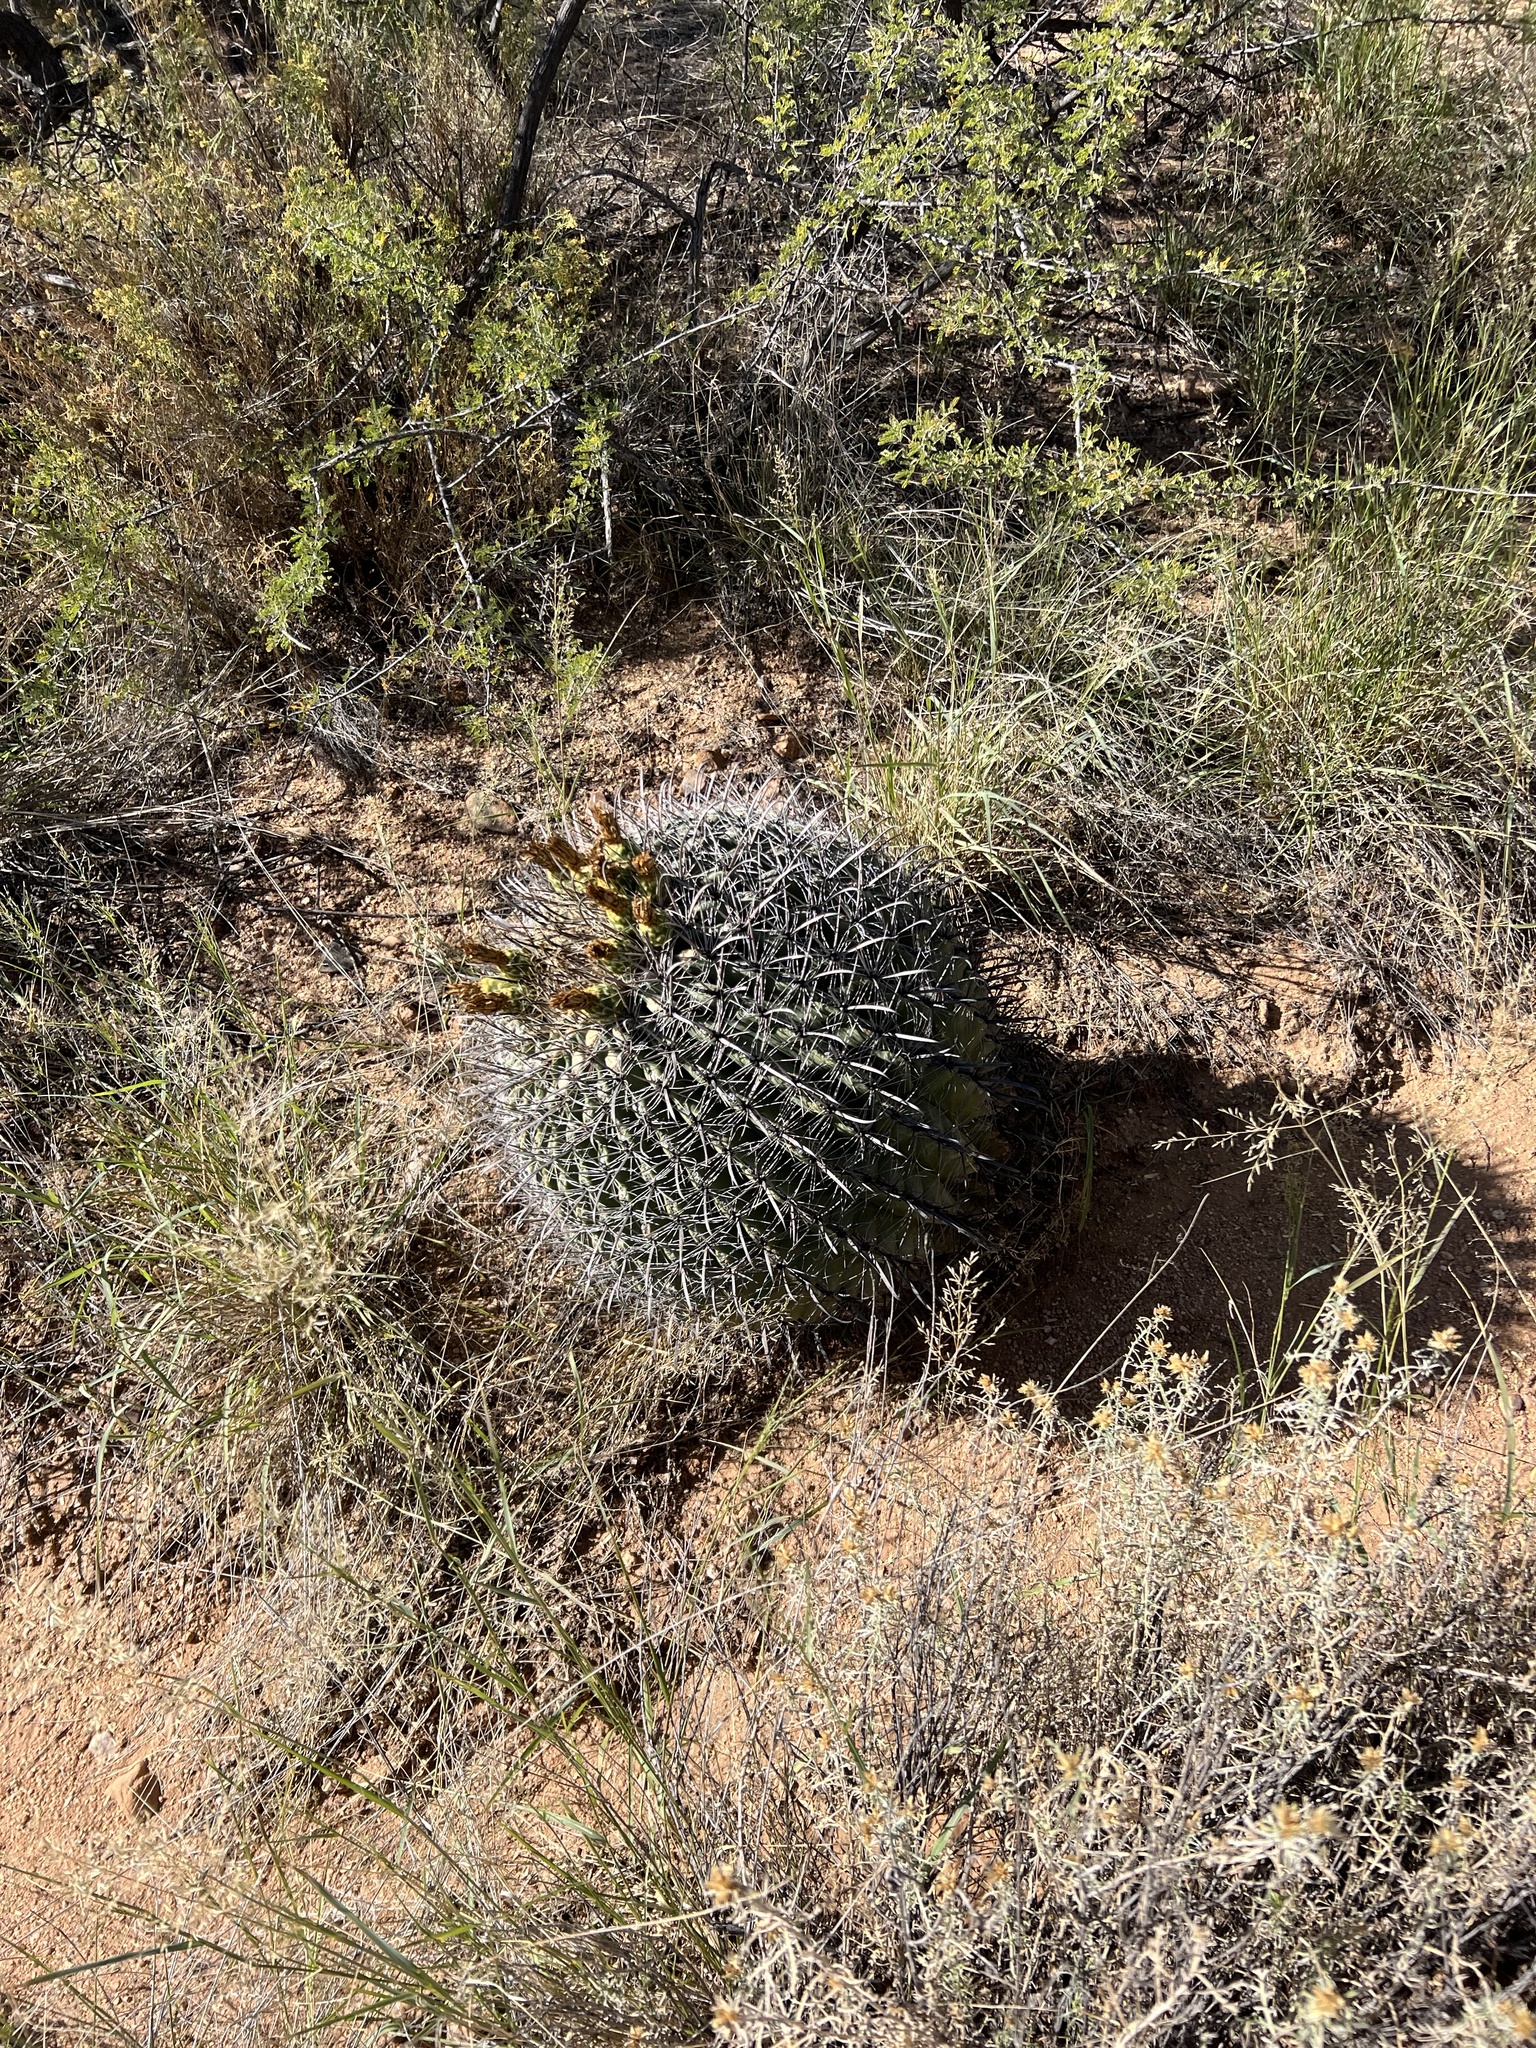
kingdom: Plantae
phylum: Tracheophyta
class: Magnoliopsida
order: Caryophyllales
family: Cactaceae
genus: Ferocactus
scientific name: Ferocactus wislizeni
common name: Candy barrel cactus
